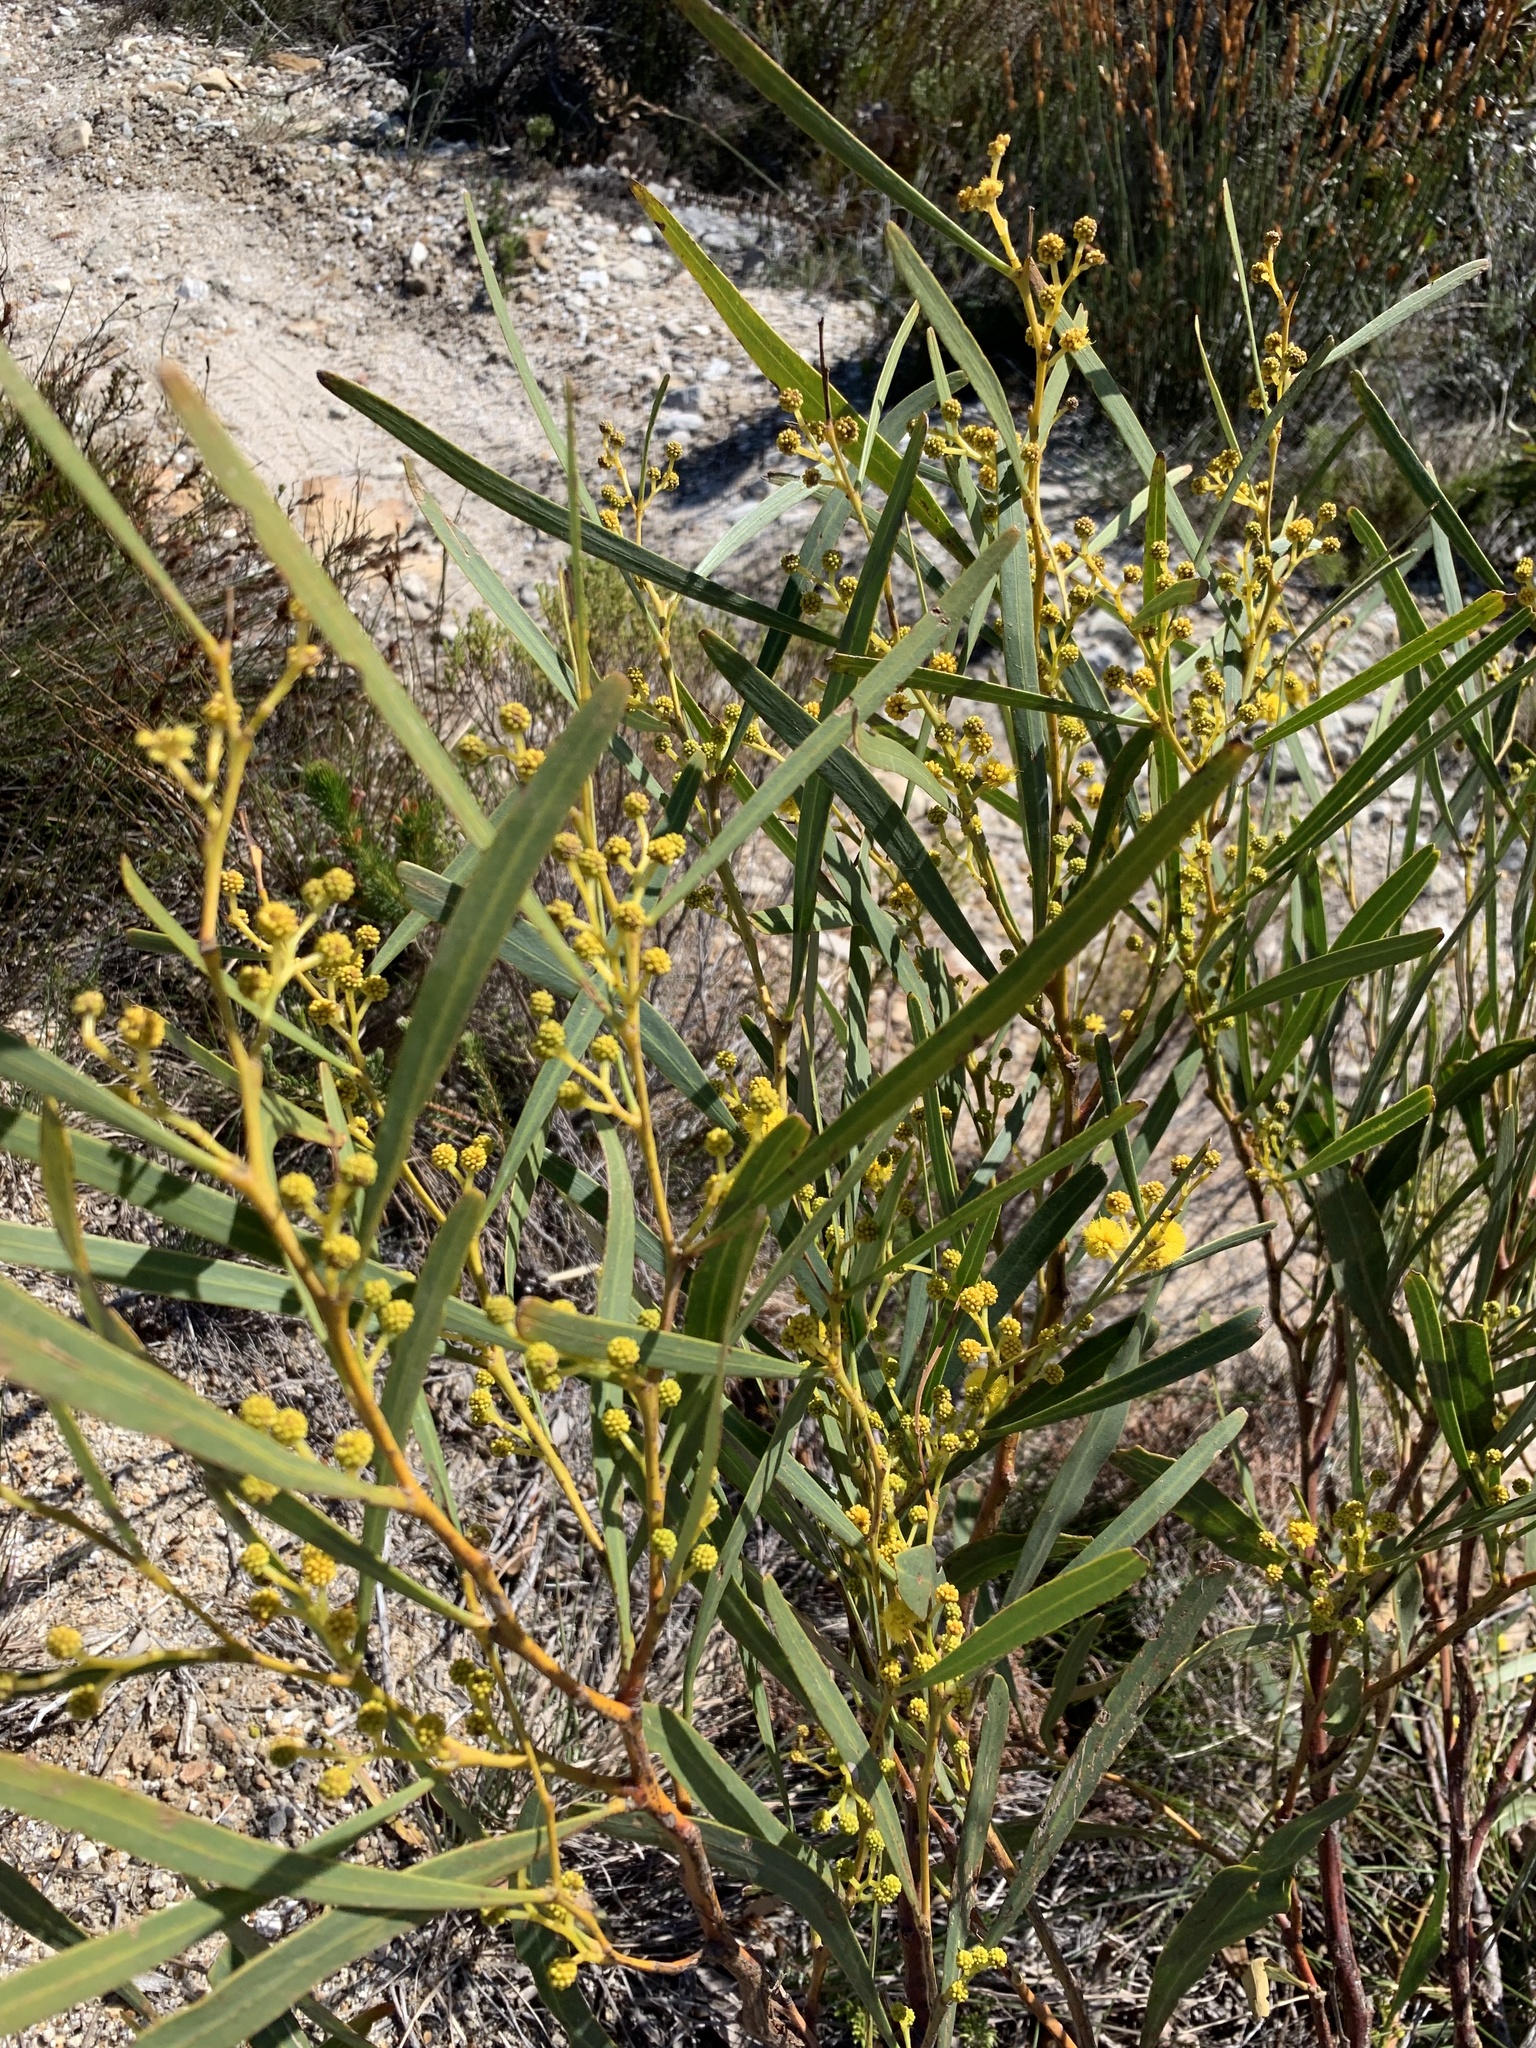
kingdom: Plantae
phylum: Tracheophyta
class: Magnoliopsida
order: Fabales
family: Fabaceae
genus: Acacia
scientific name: Acacia saligna
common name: Orange wattle
